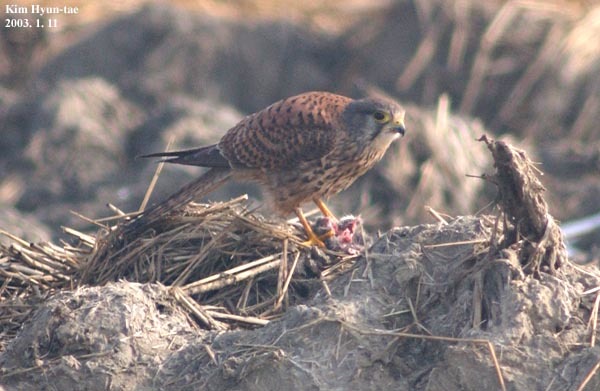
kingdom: Animalia
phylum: Chordata
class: Aves
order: Falconiformes
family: Falconidae
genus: Falco
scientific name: Falco tinnunculus
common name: Common kestrel
